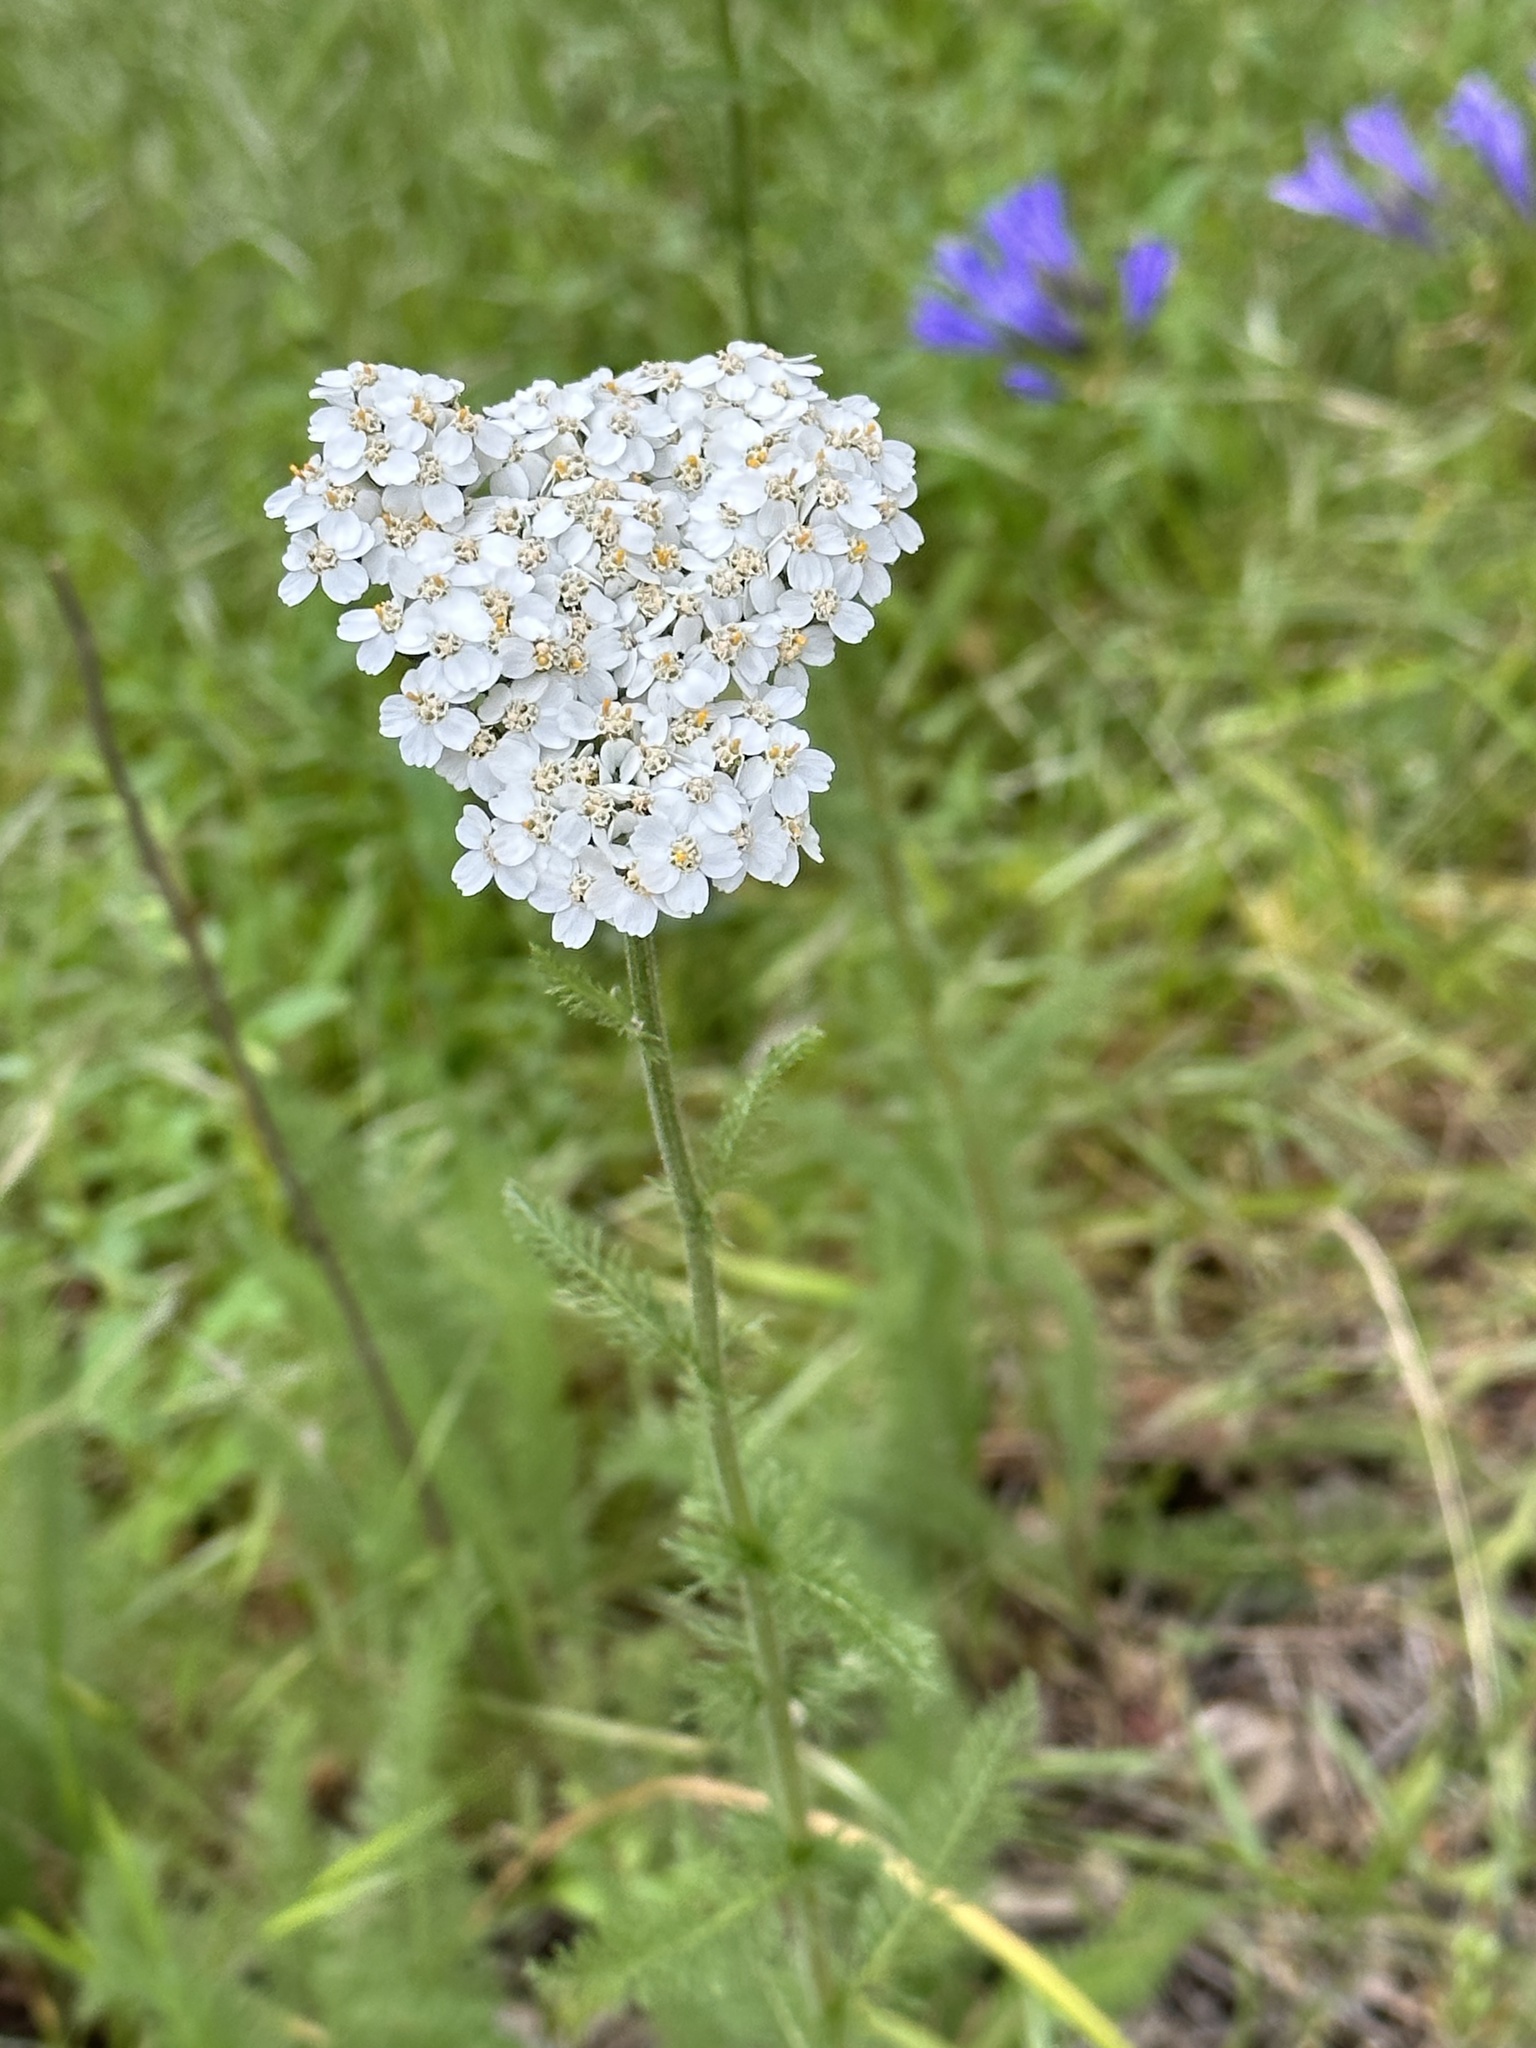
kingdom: Plantae
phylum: Tracheophyta
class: Magnoliopsida
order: Asterales
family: Asteraceae
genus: Achillea
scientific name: Achillea millefolium
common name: Yarrow
